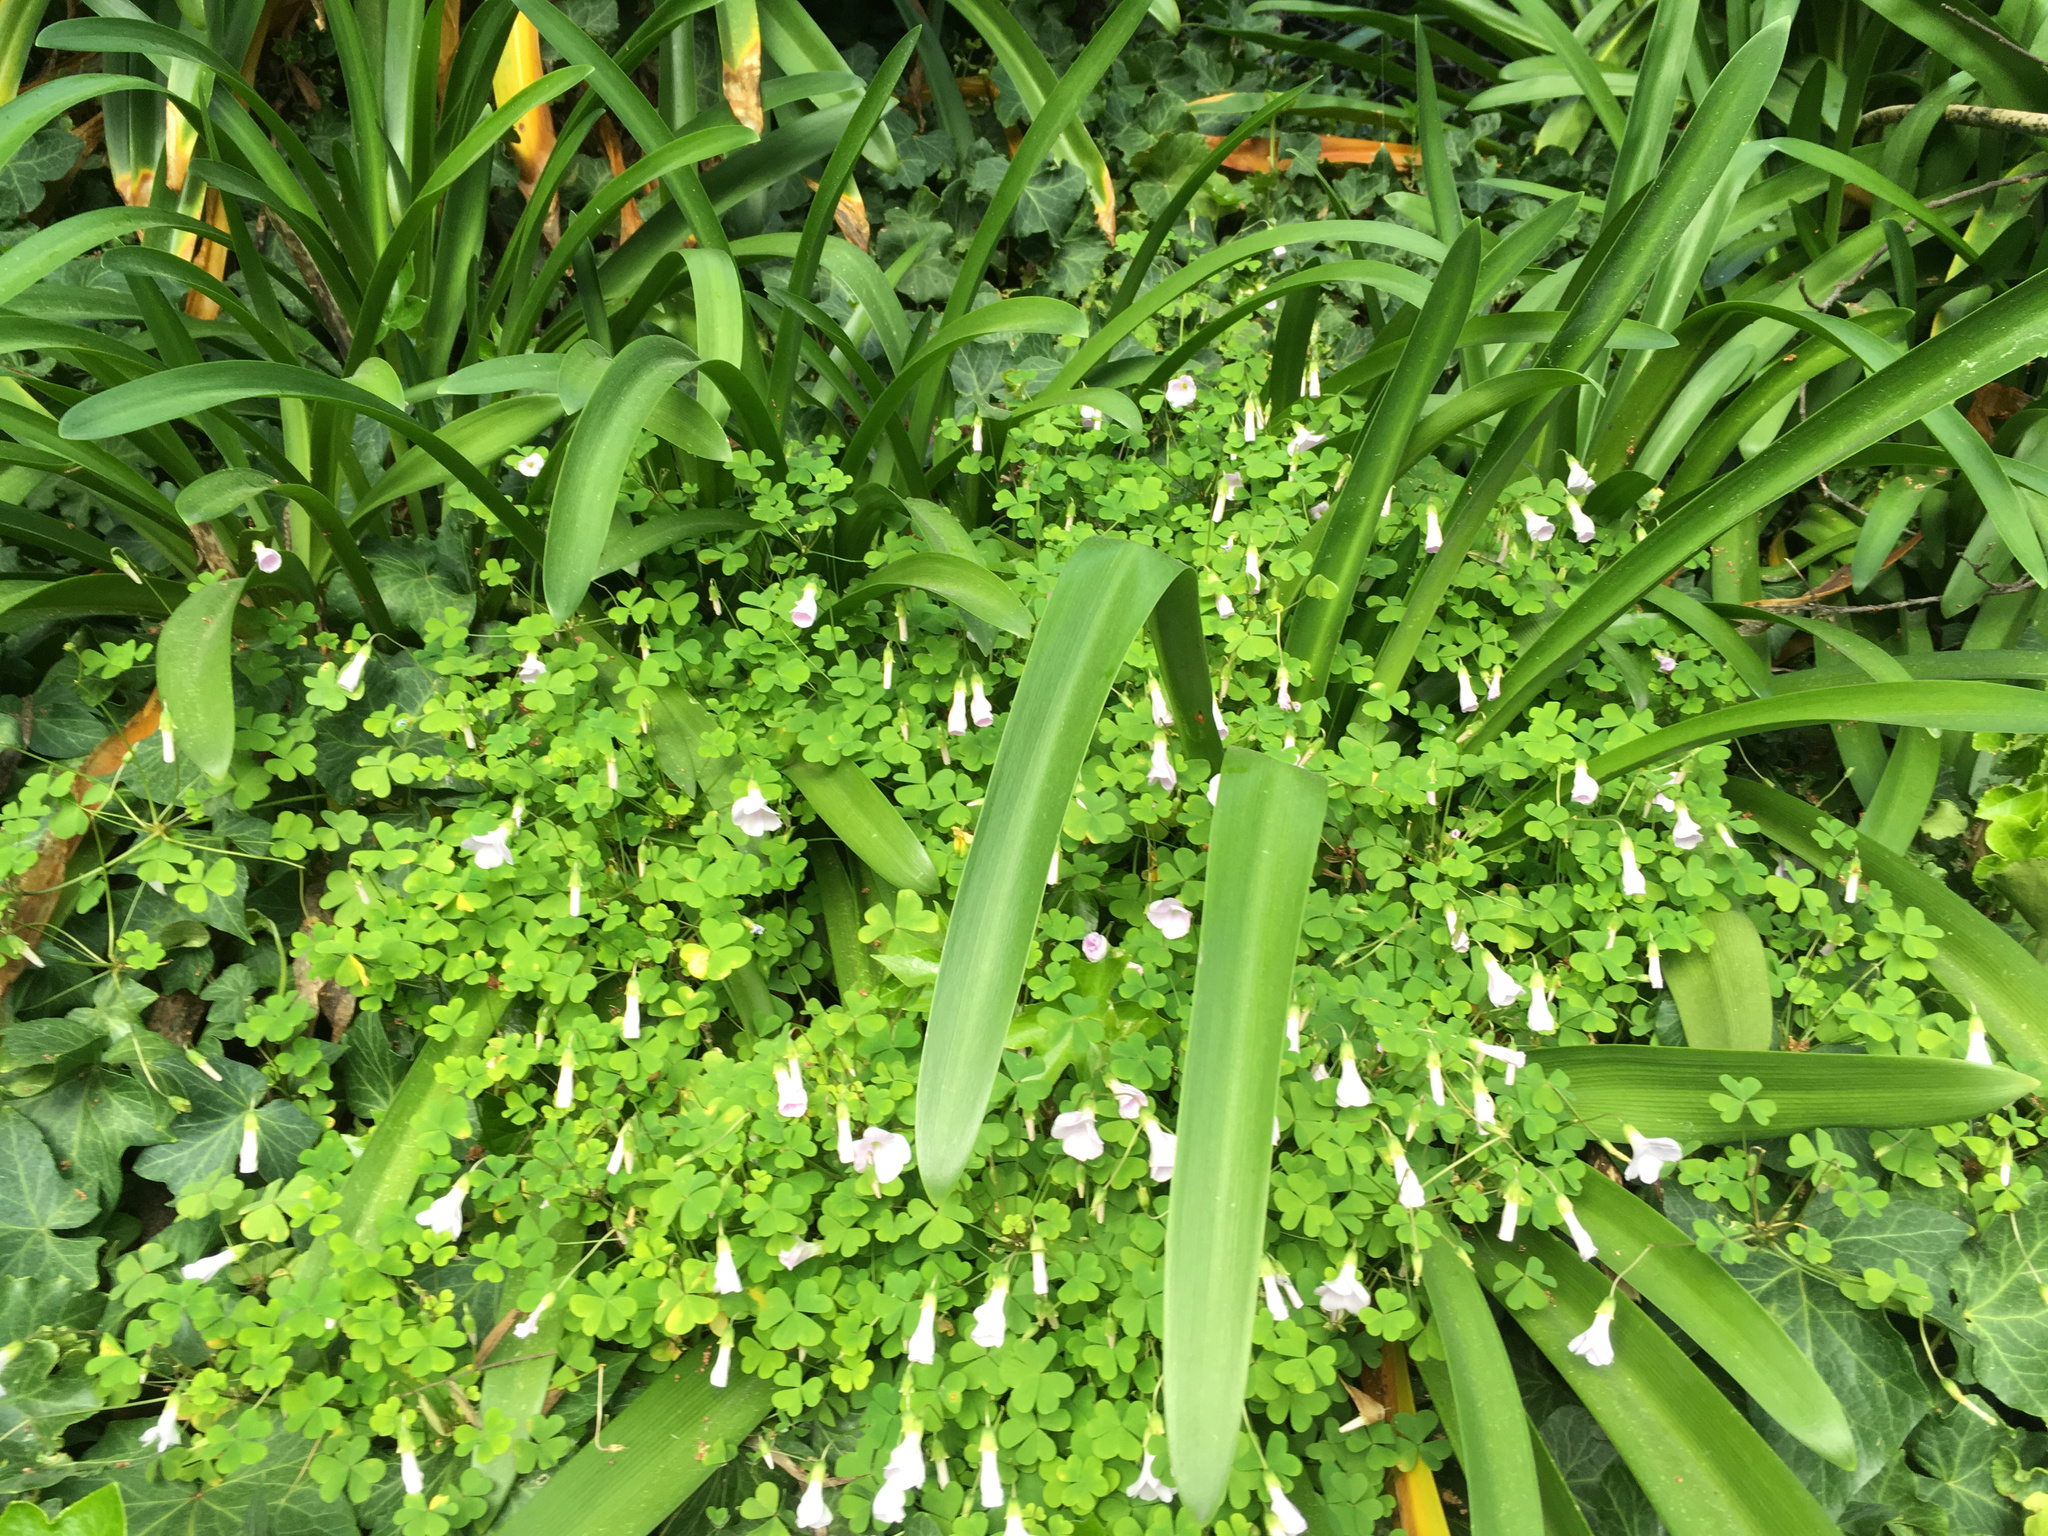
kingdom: Plantae
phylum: Tracheophyta
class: Magnoliopsida
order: Oxalidales
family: Oxalidaceae
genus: Oxalis
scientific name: Oxalis incarnata
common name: Pale pink-sorrel
